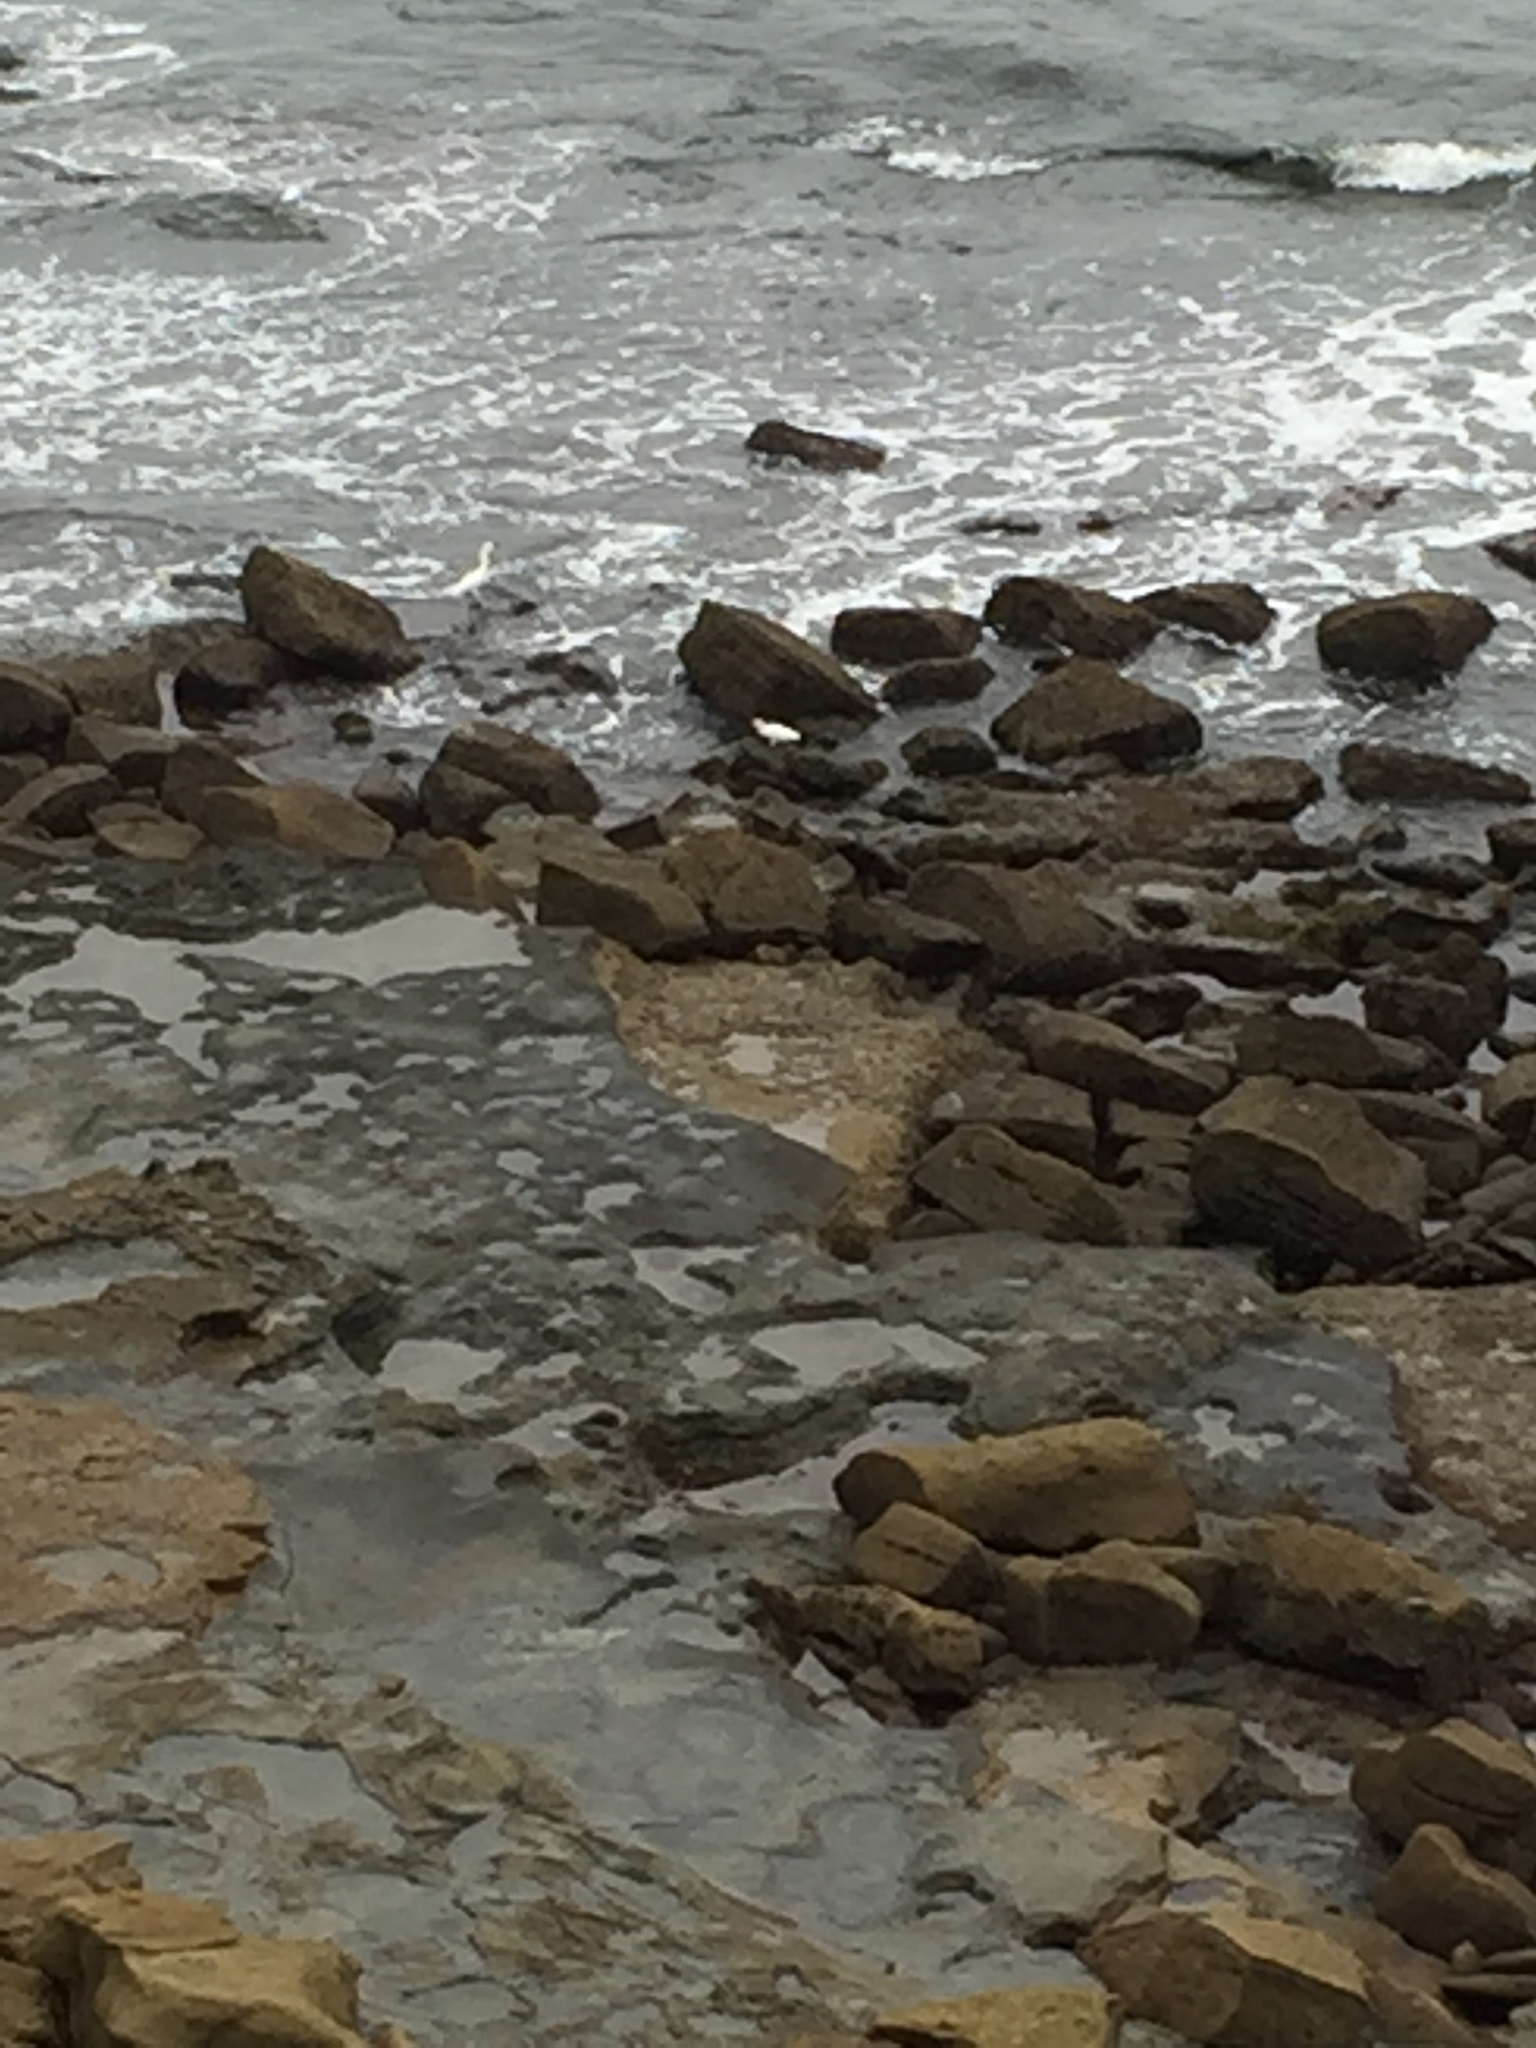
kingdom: Animalia
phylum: Chordata
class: Aves
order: Pelecaniformes
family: Ardeidae
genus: Egretta
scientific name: Egretta thula
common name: Snowy egret
